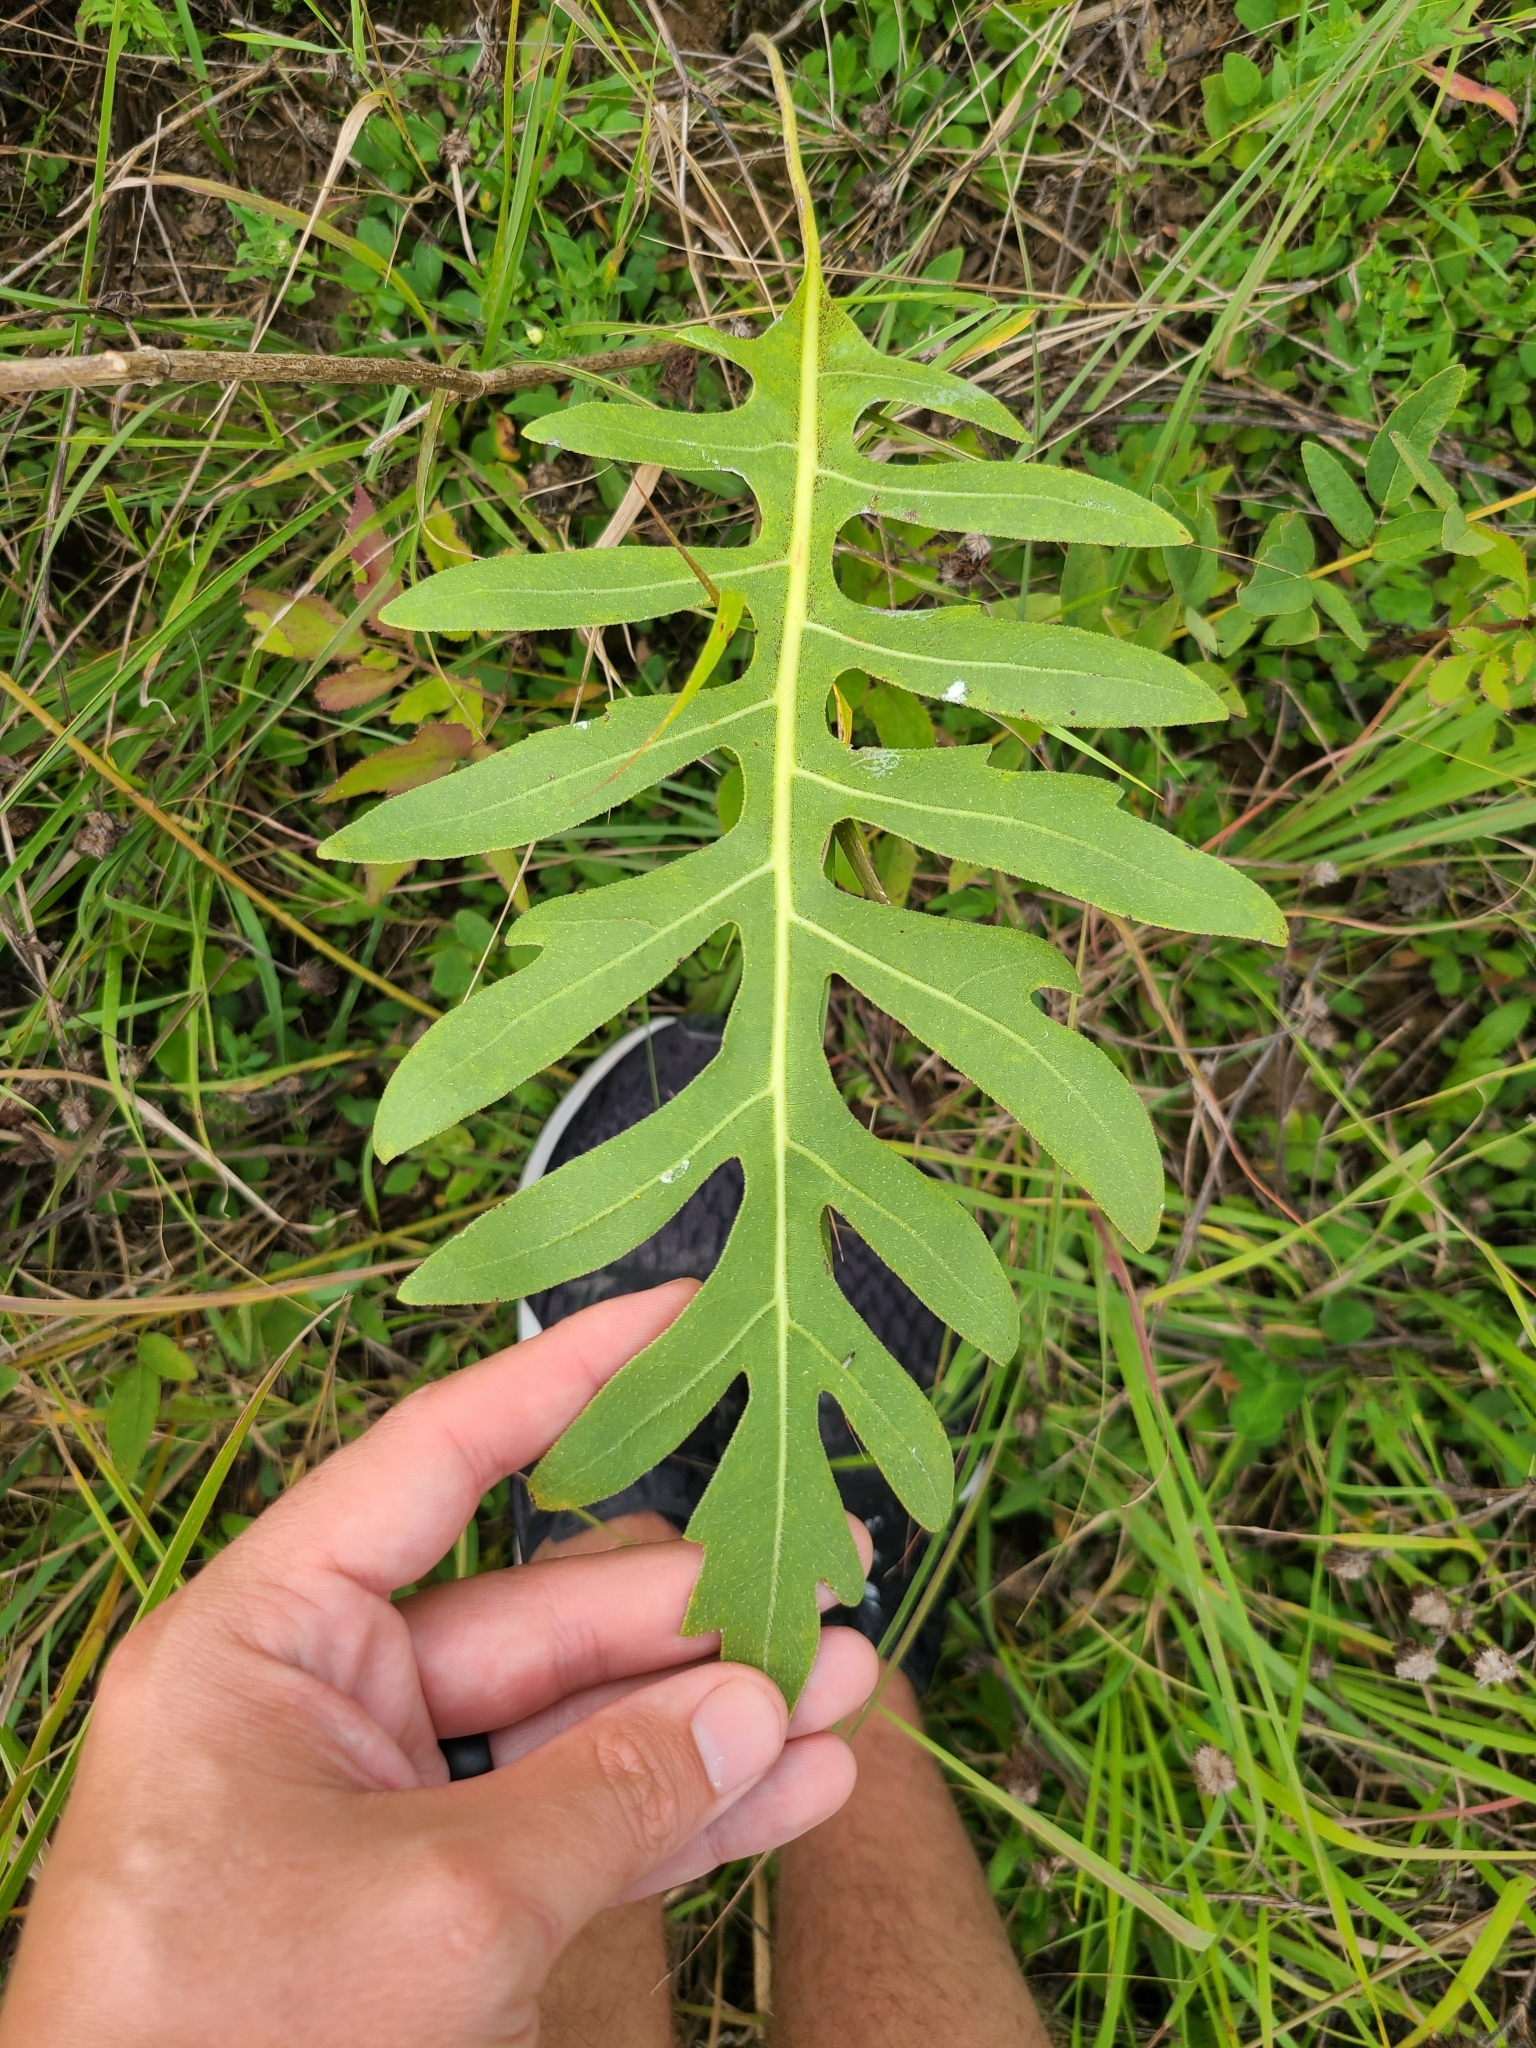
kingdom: Plantae
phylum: Tracheophyta
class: Magnoliopsida
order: Asterales
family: Asteraceae
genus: Silphium
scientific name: Silphium laciniatum
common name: Polarplant
